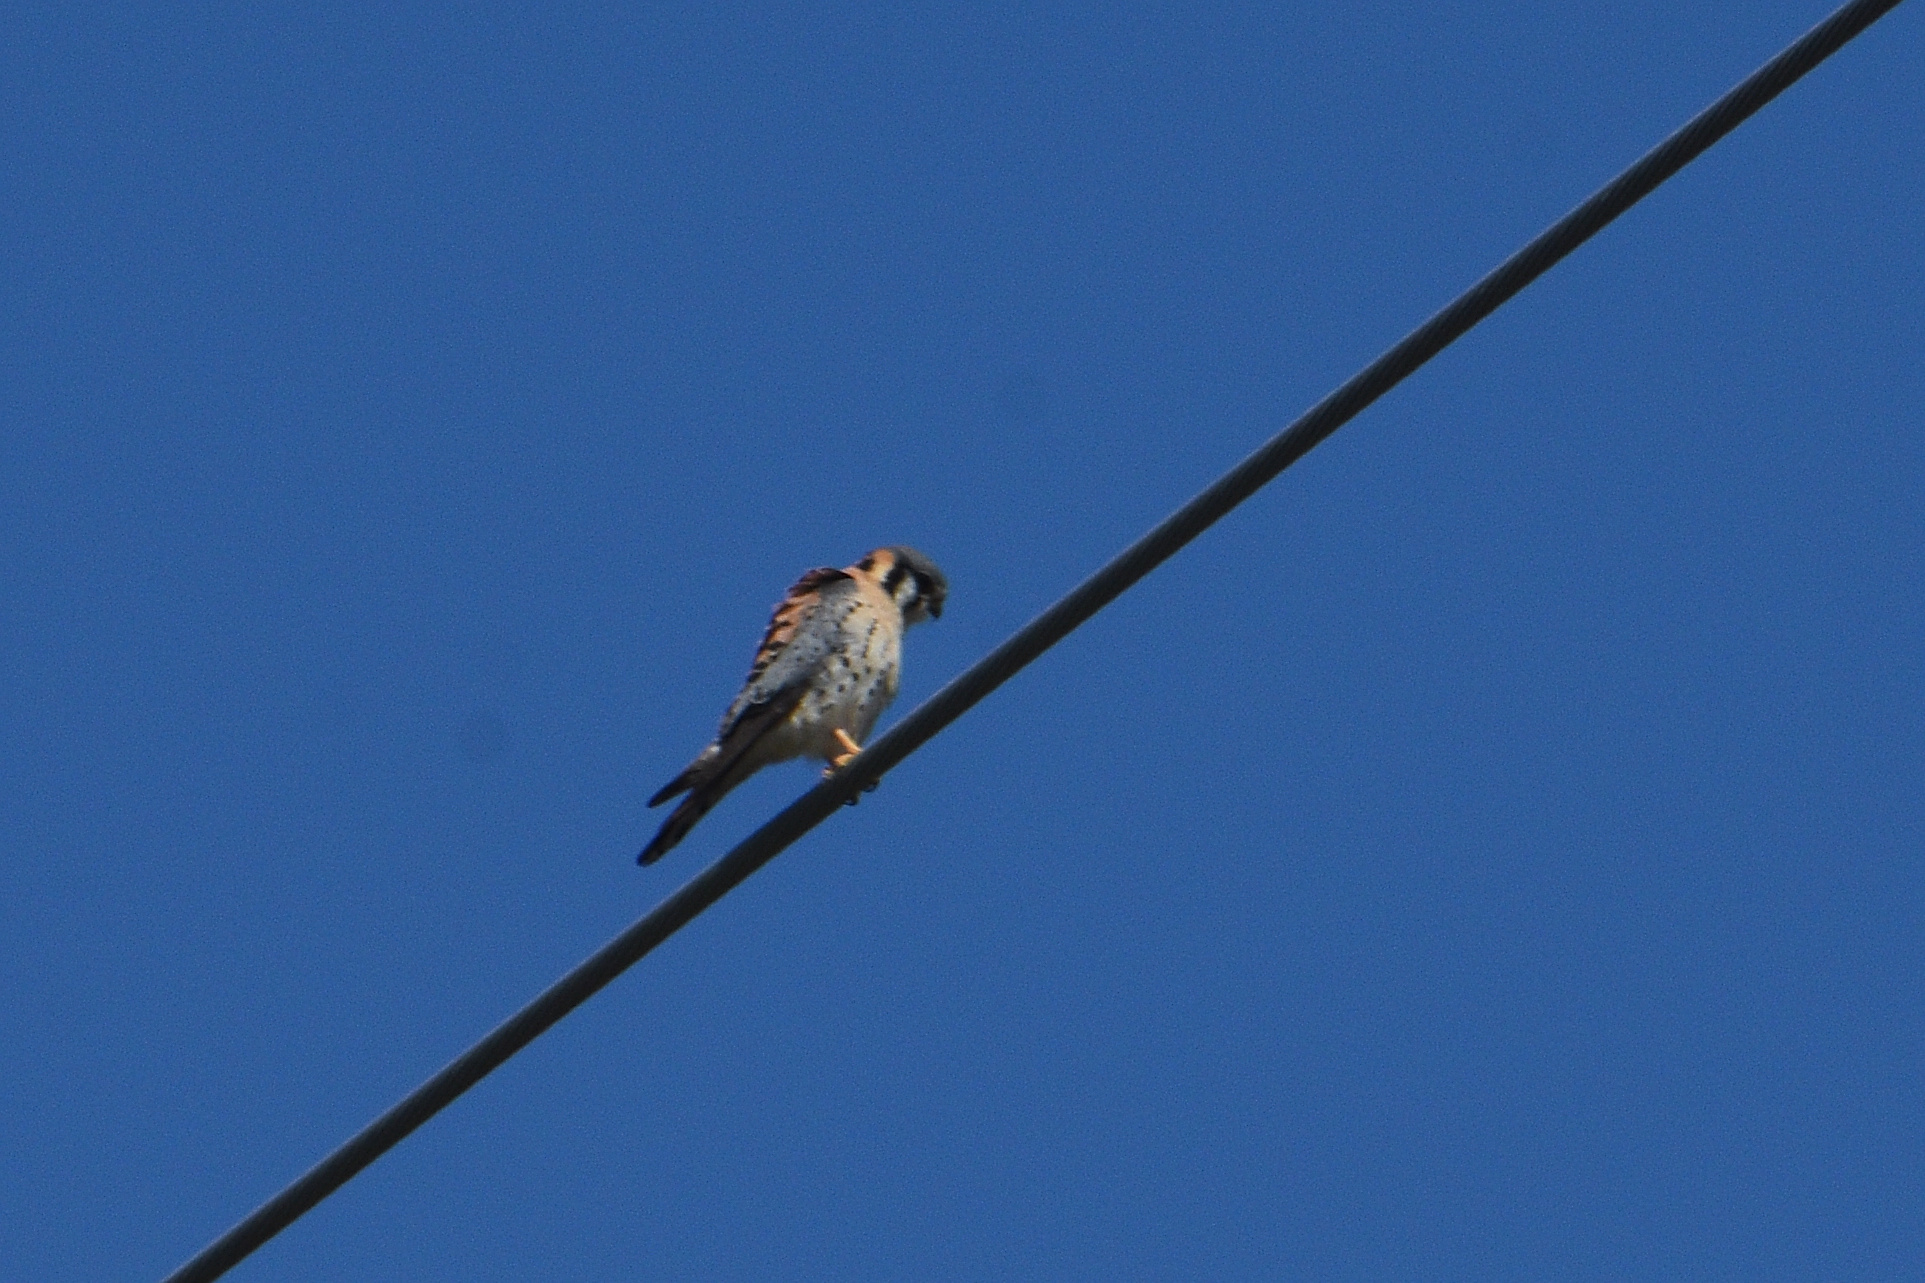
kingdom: Animalia
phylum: Chordata
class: Aves
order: Falconiformes
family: Falconidae
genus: Falco
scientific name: Falco sparverius
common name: American kestrel
